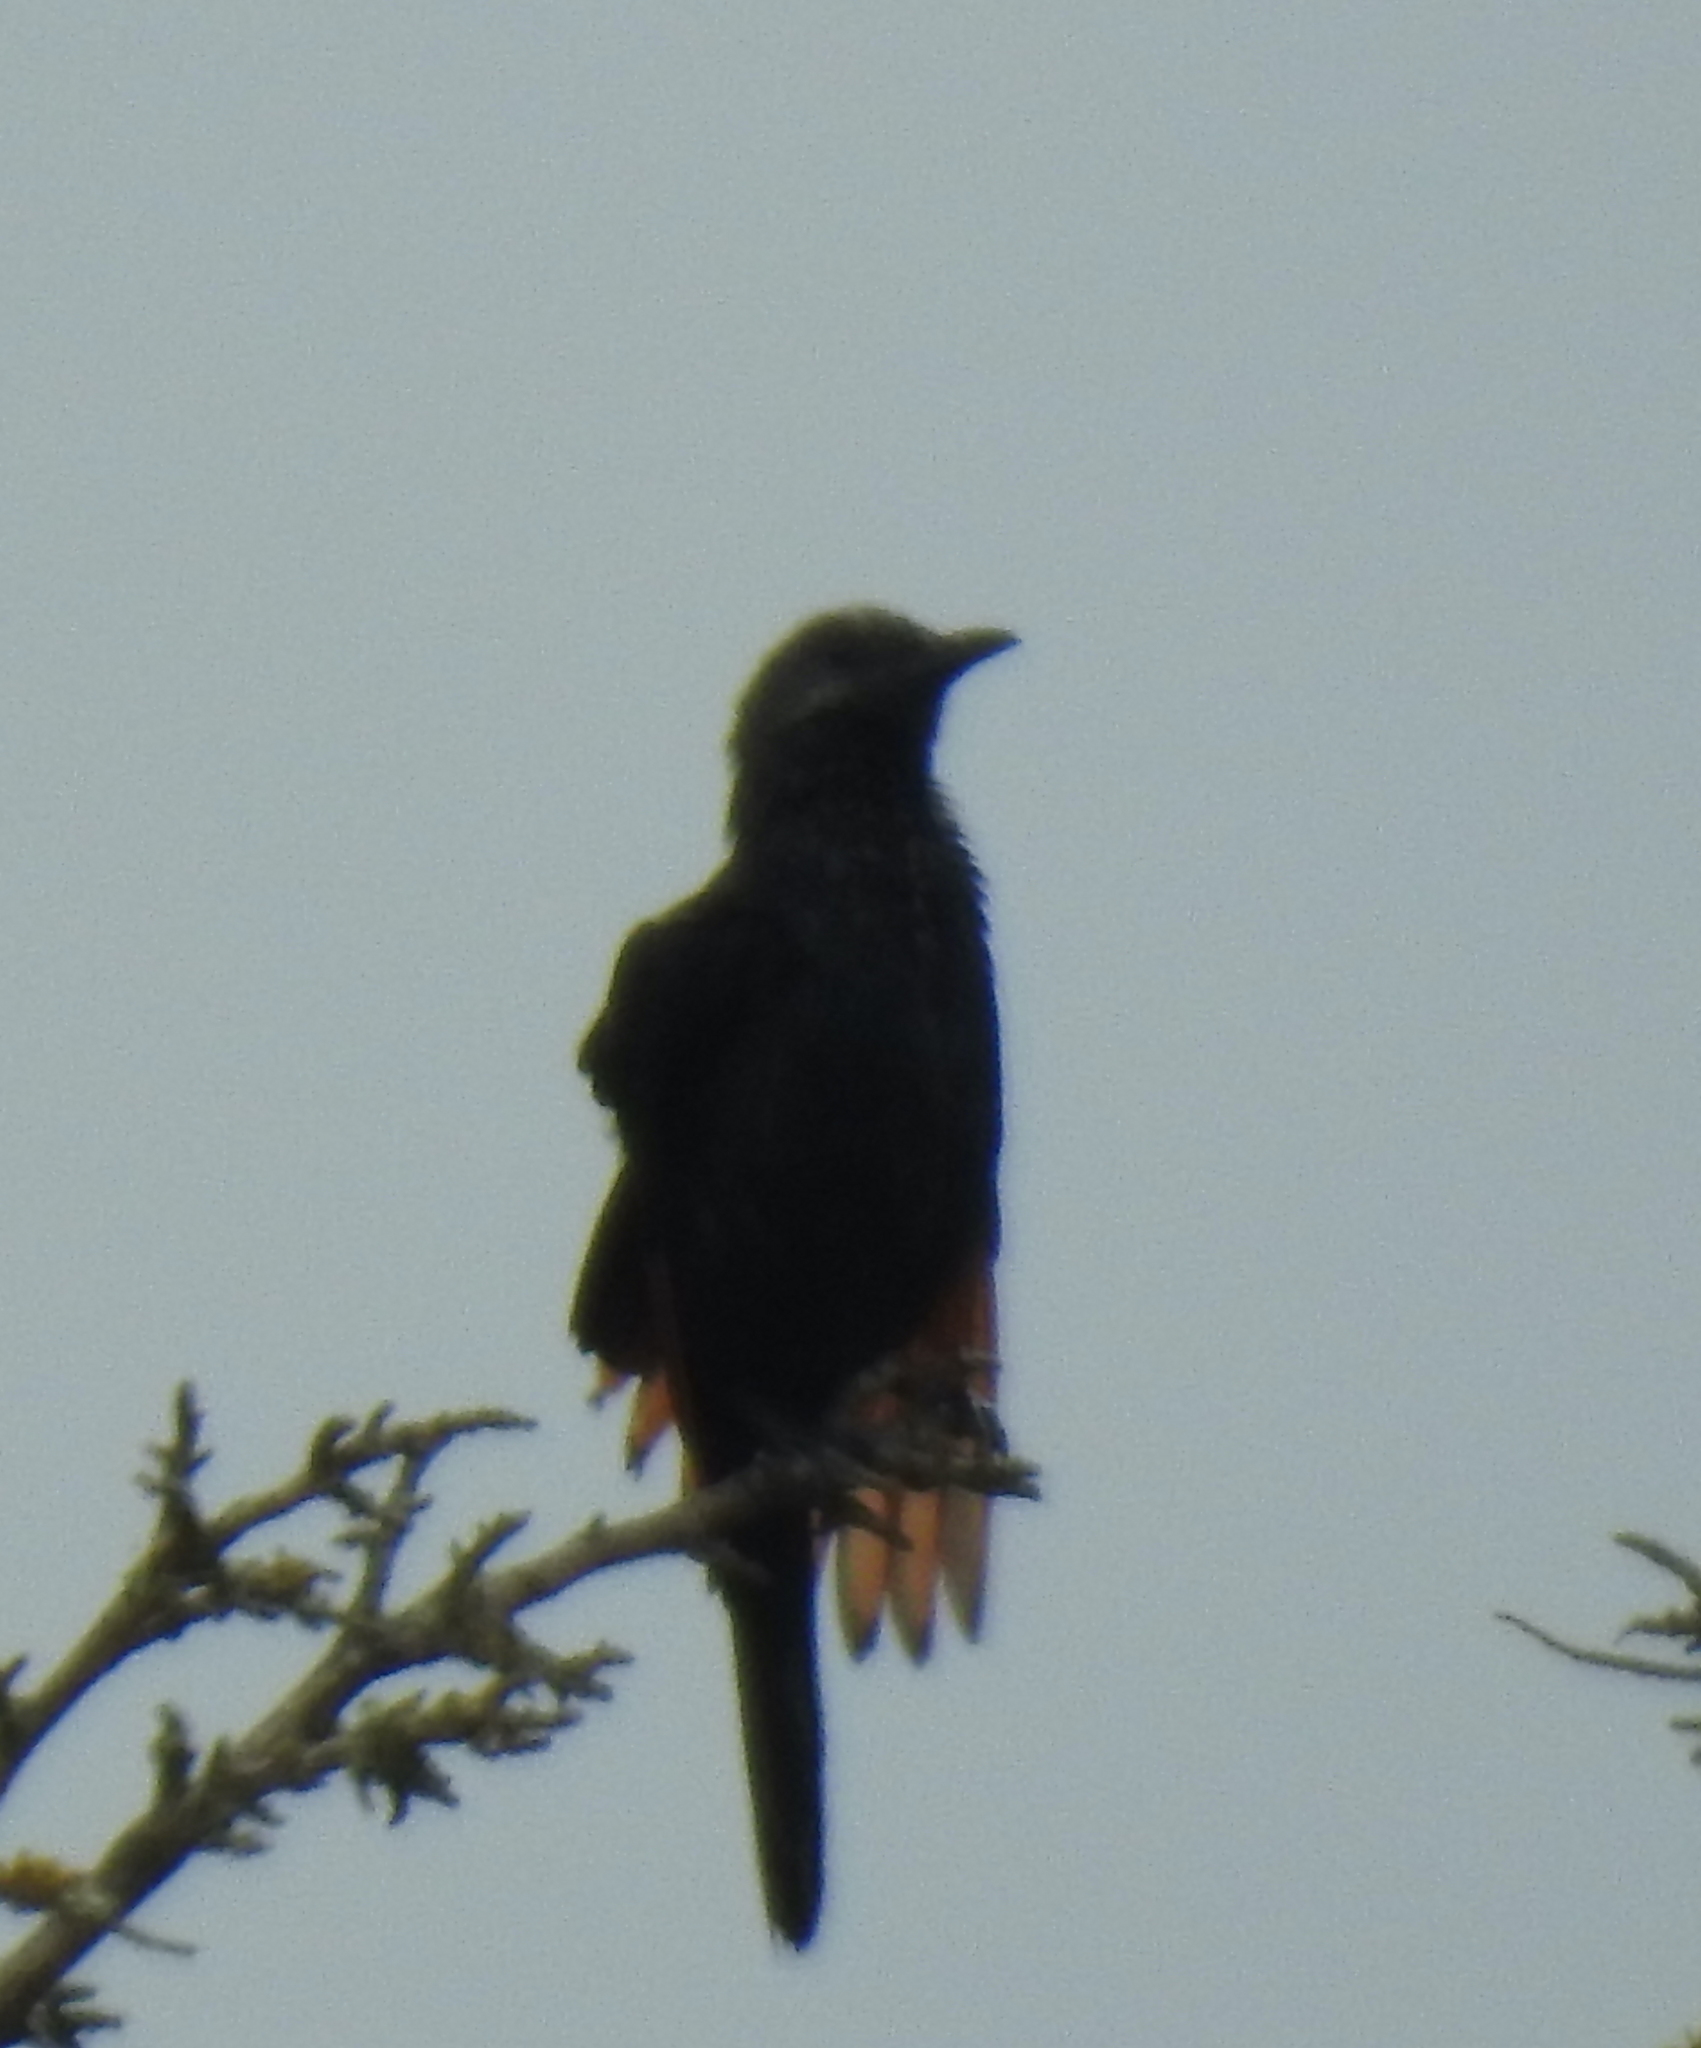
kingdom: Animalia
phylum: Chordata
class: Aves
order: Passeriformes
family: Sturnidae
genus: Onychognathus
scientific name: Onychognathus morio
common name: Red-winged starling
